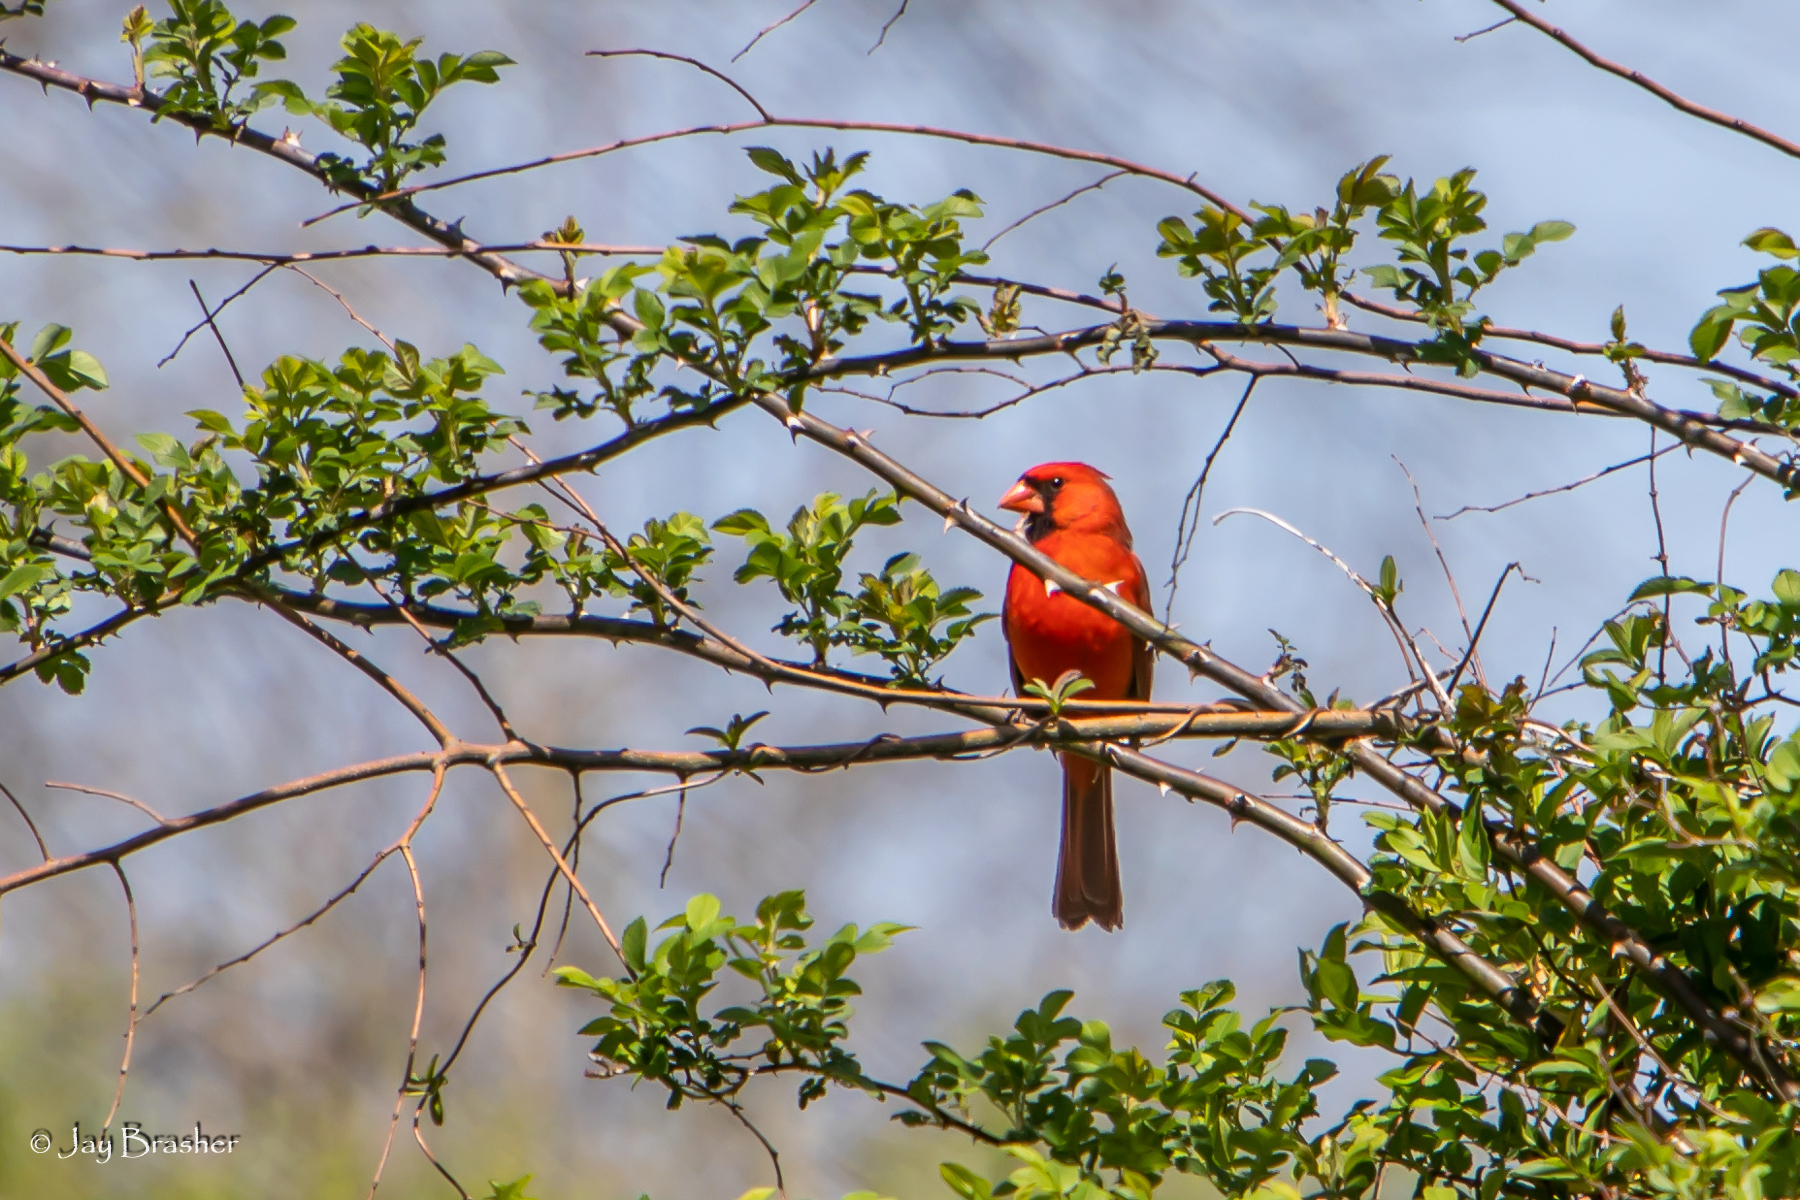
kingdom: Animalia
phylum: Chordata
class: Aves
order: Passeriformes
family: Cardinalidae
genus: Cardinalis
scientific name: Cardinalis cardinalis
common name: Northern cardinal
